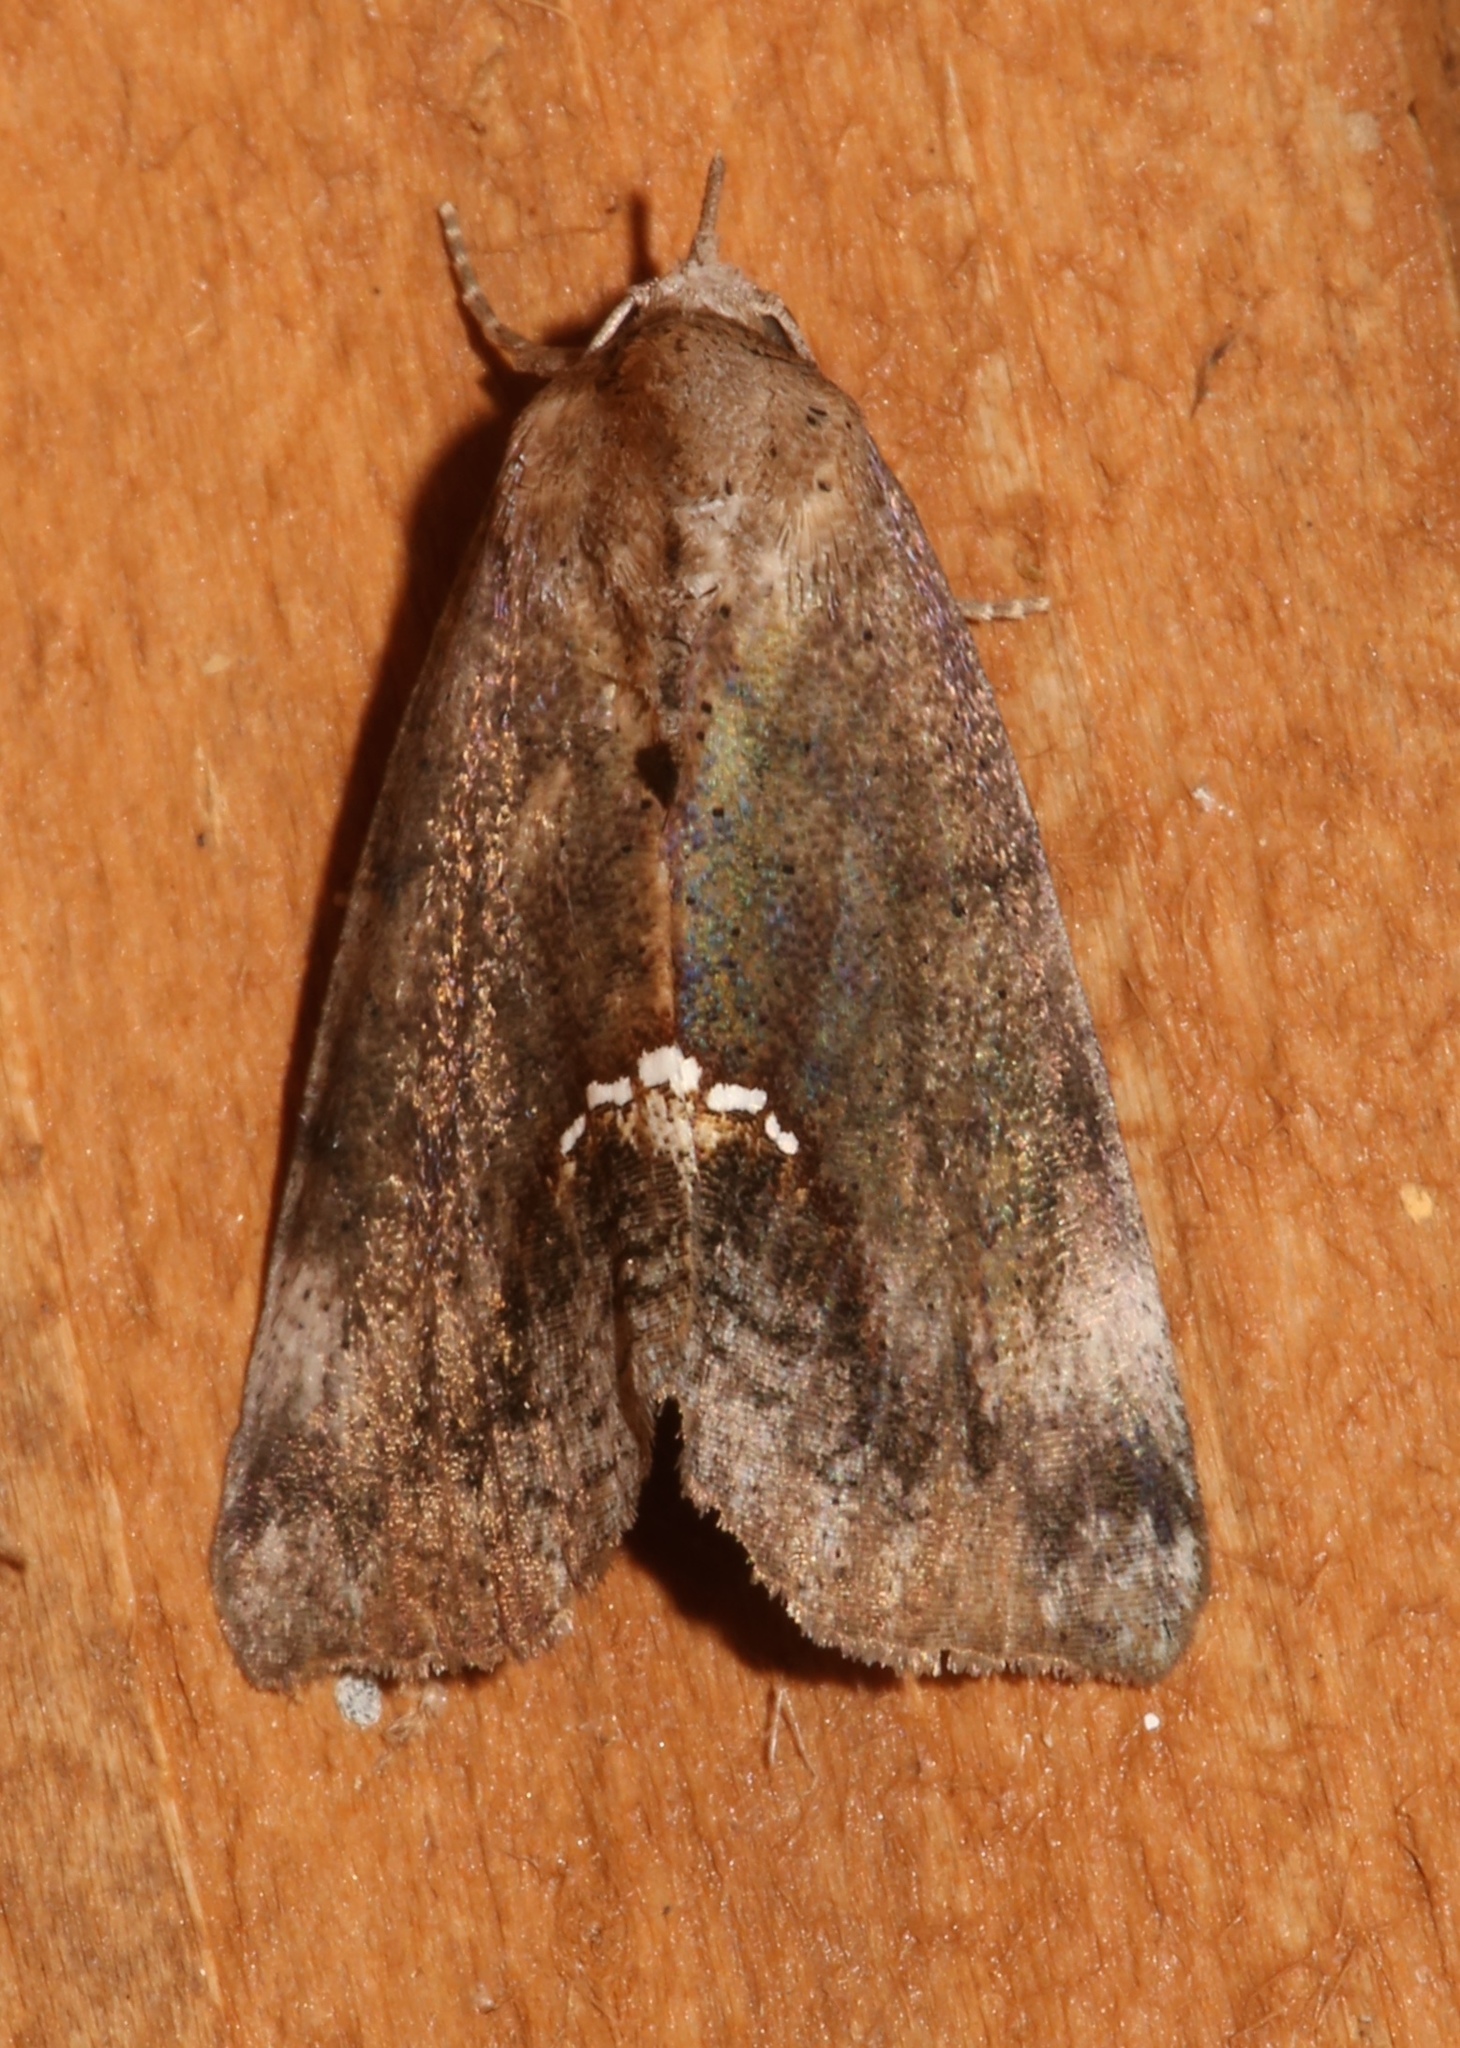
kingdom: Animalia
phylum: Arthropoda
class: Insecta
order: Lepidoptera
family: Erebidae
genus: Hypsoropha
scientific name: Hypsoropha hormos
